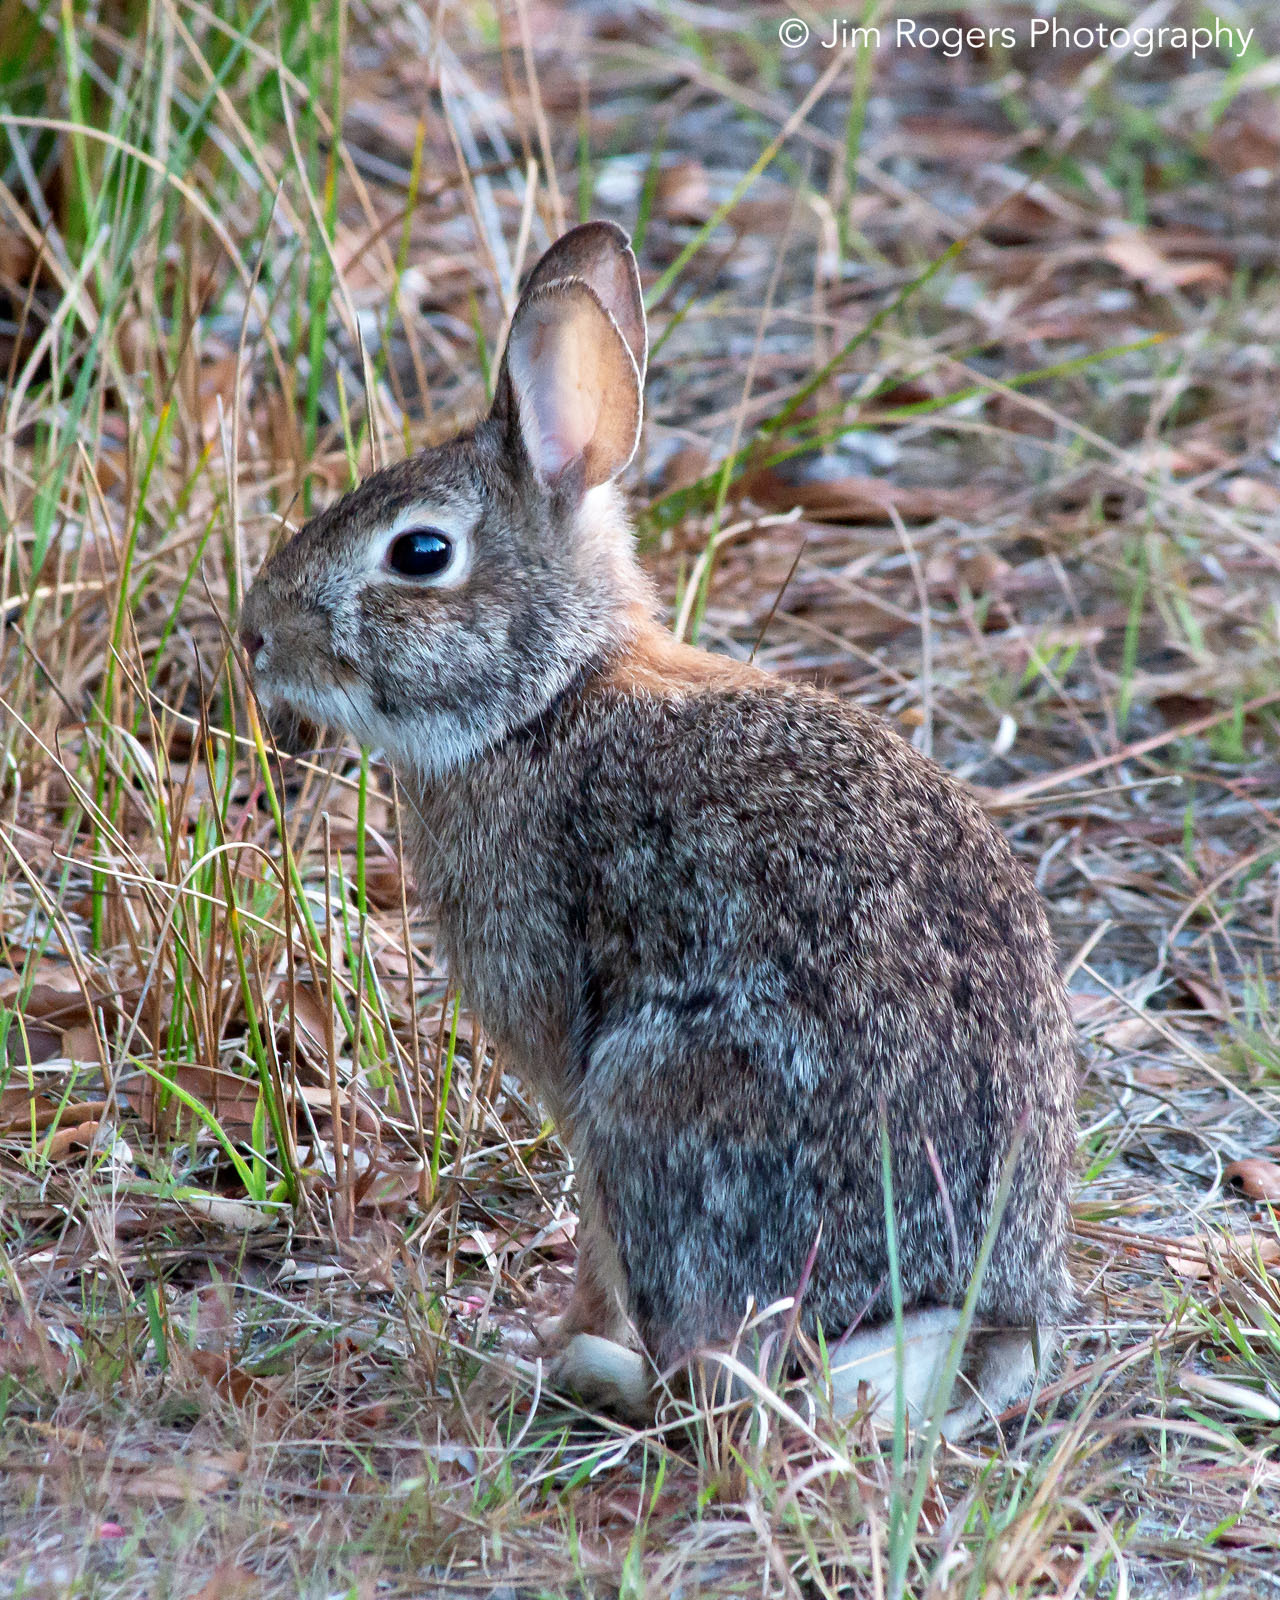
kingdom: Animalia
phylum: Chordata
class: Mammalia
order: Lagomorpha
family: Leporidae
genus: Sylvilagus
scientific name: Sylvilagus floridanus
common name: Eastern cottontail
